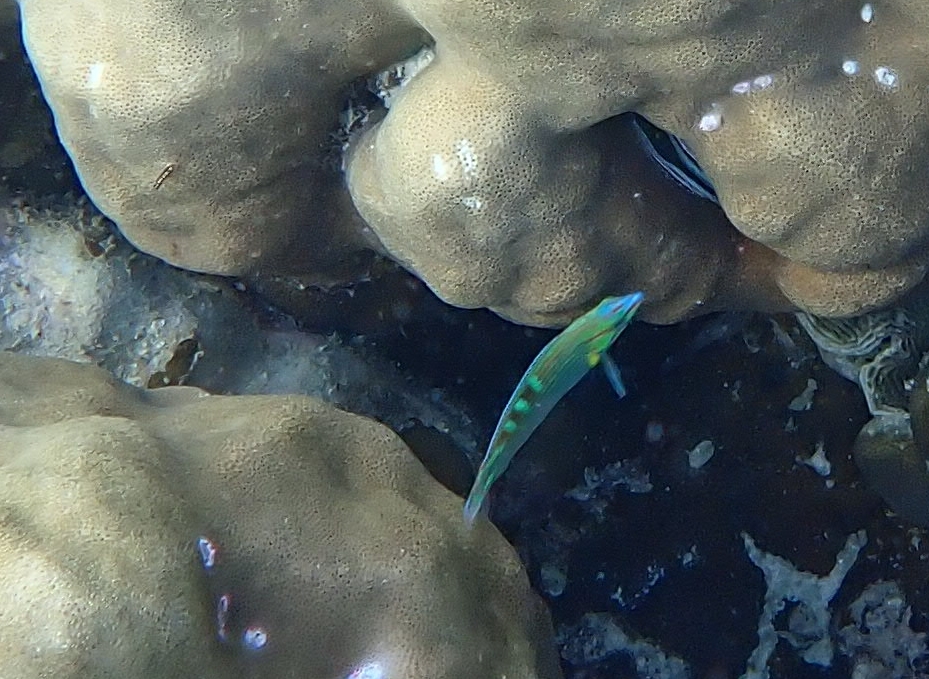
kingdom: Animalia
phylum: Chordata
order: Perciformes
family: Labridae
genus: Halichoeres
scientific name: Halichoeres melanurus
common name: Hoeven's wrasse
